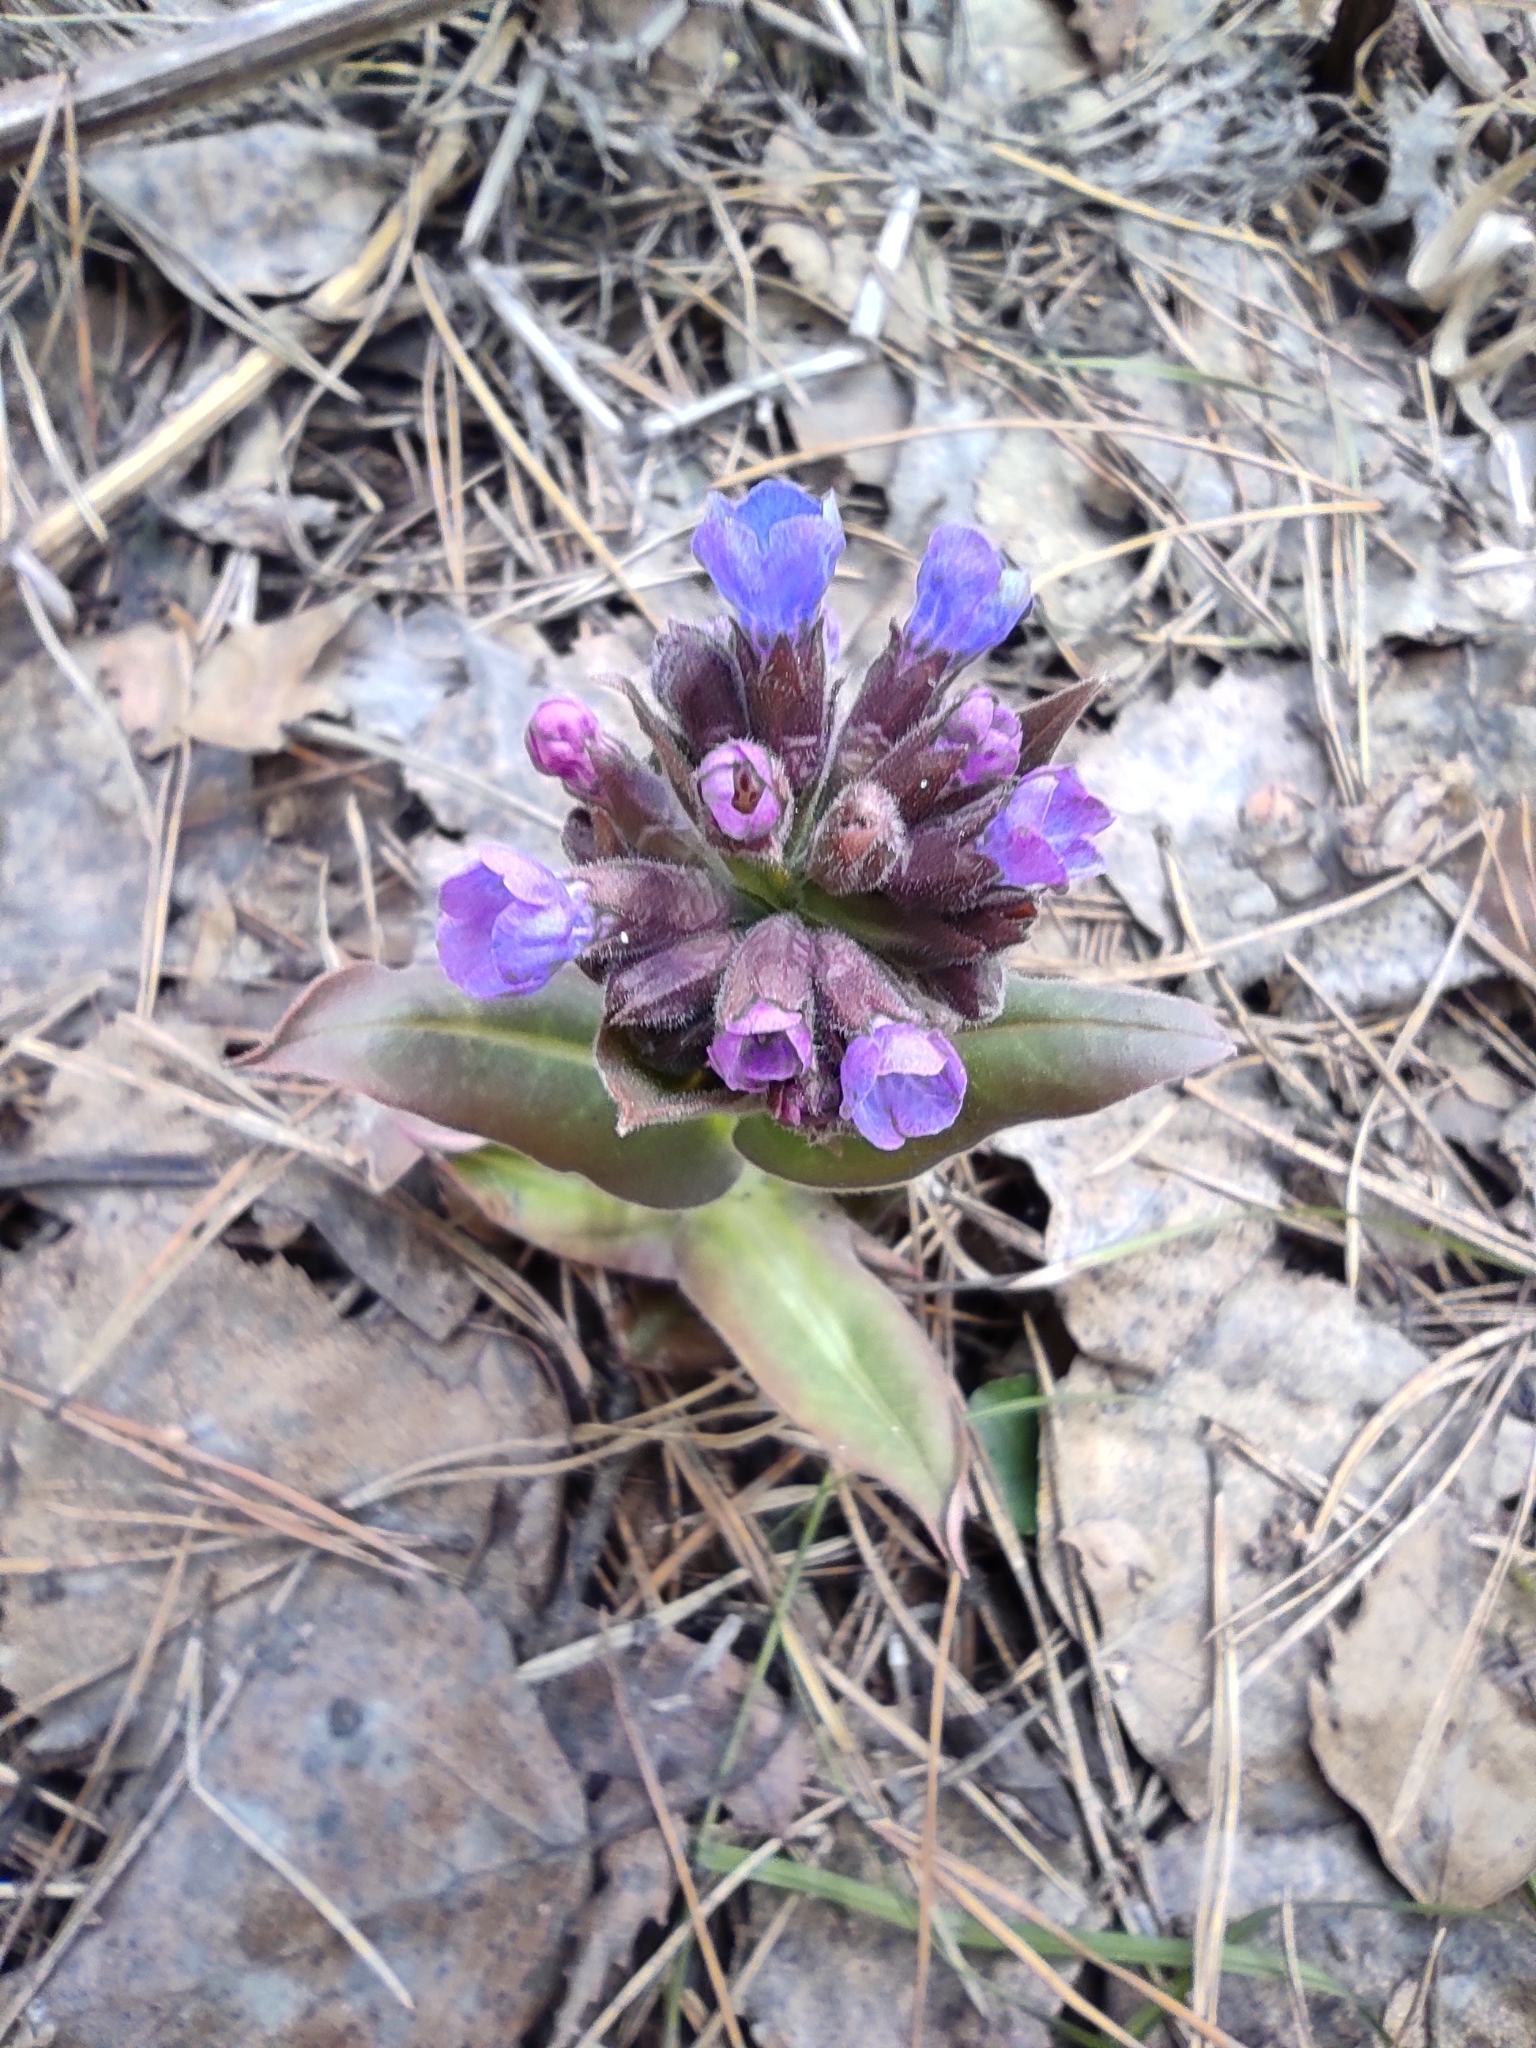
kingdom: Plantae
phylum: Tracheophyta
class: Magnoliopsida
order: Boraginales
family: Boraginaceae
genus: Pulmonaria
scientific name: Pulmonaria mollis
